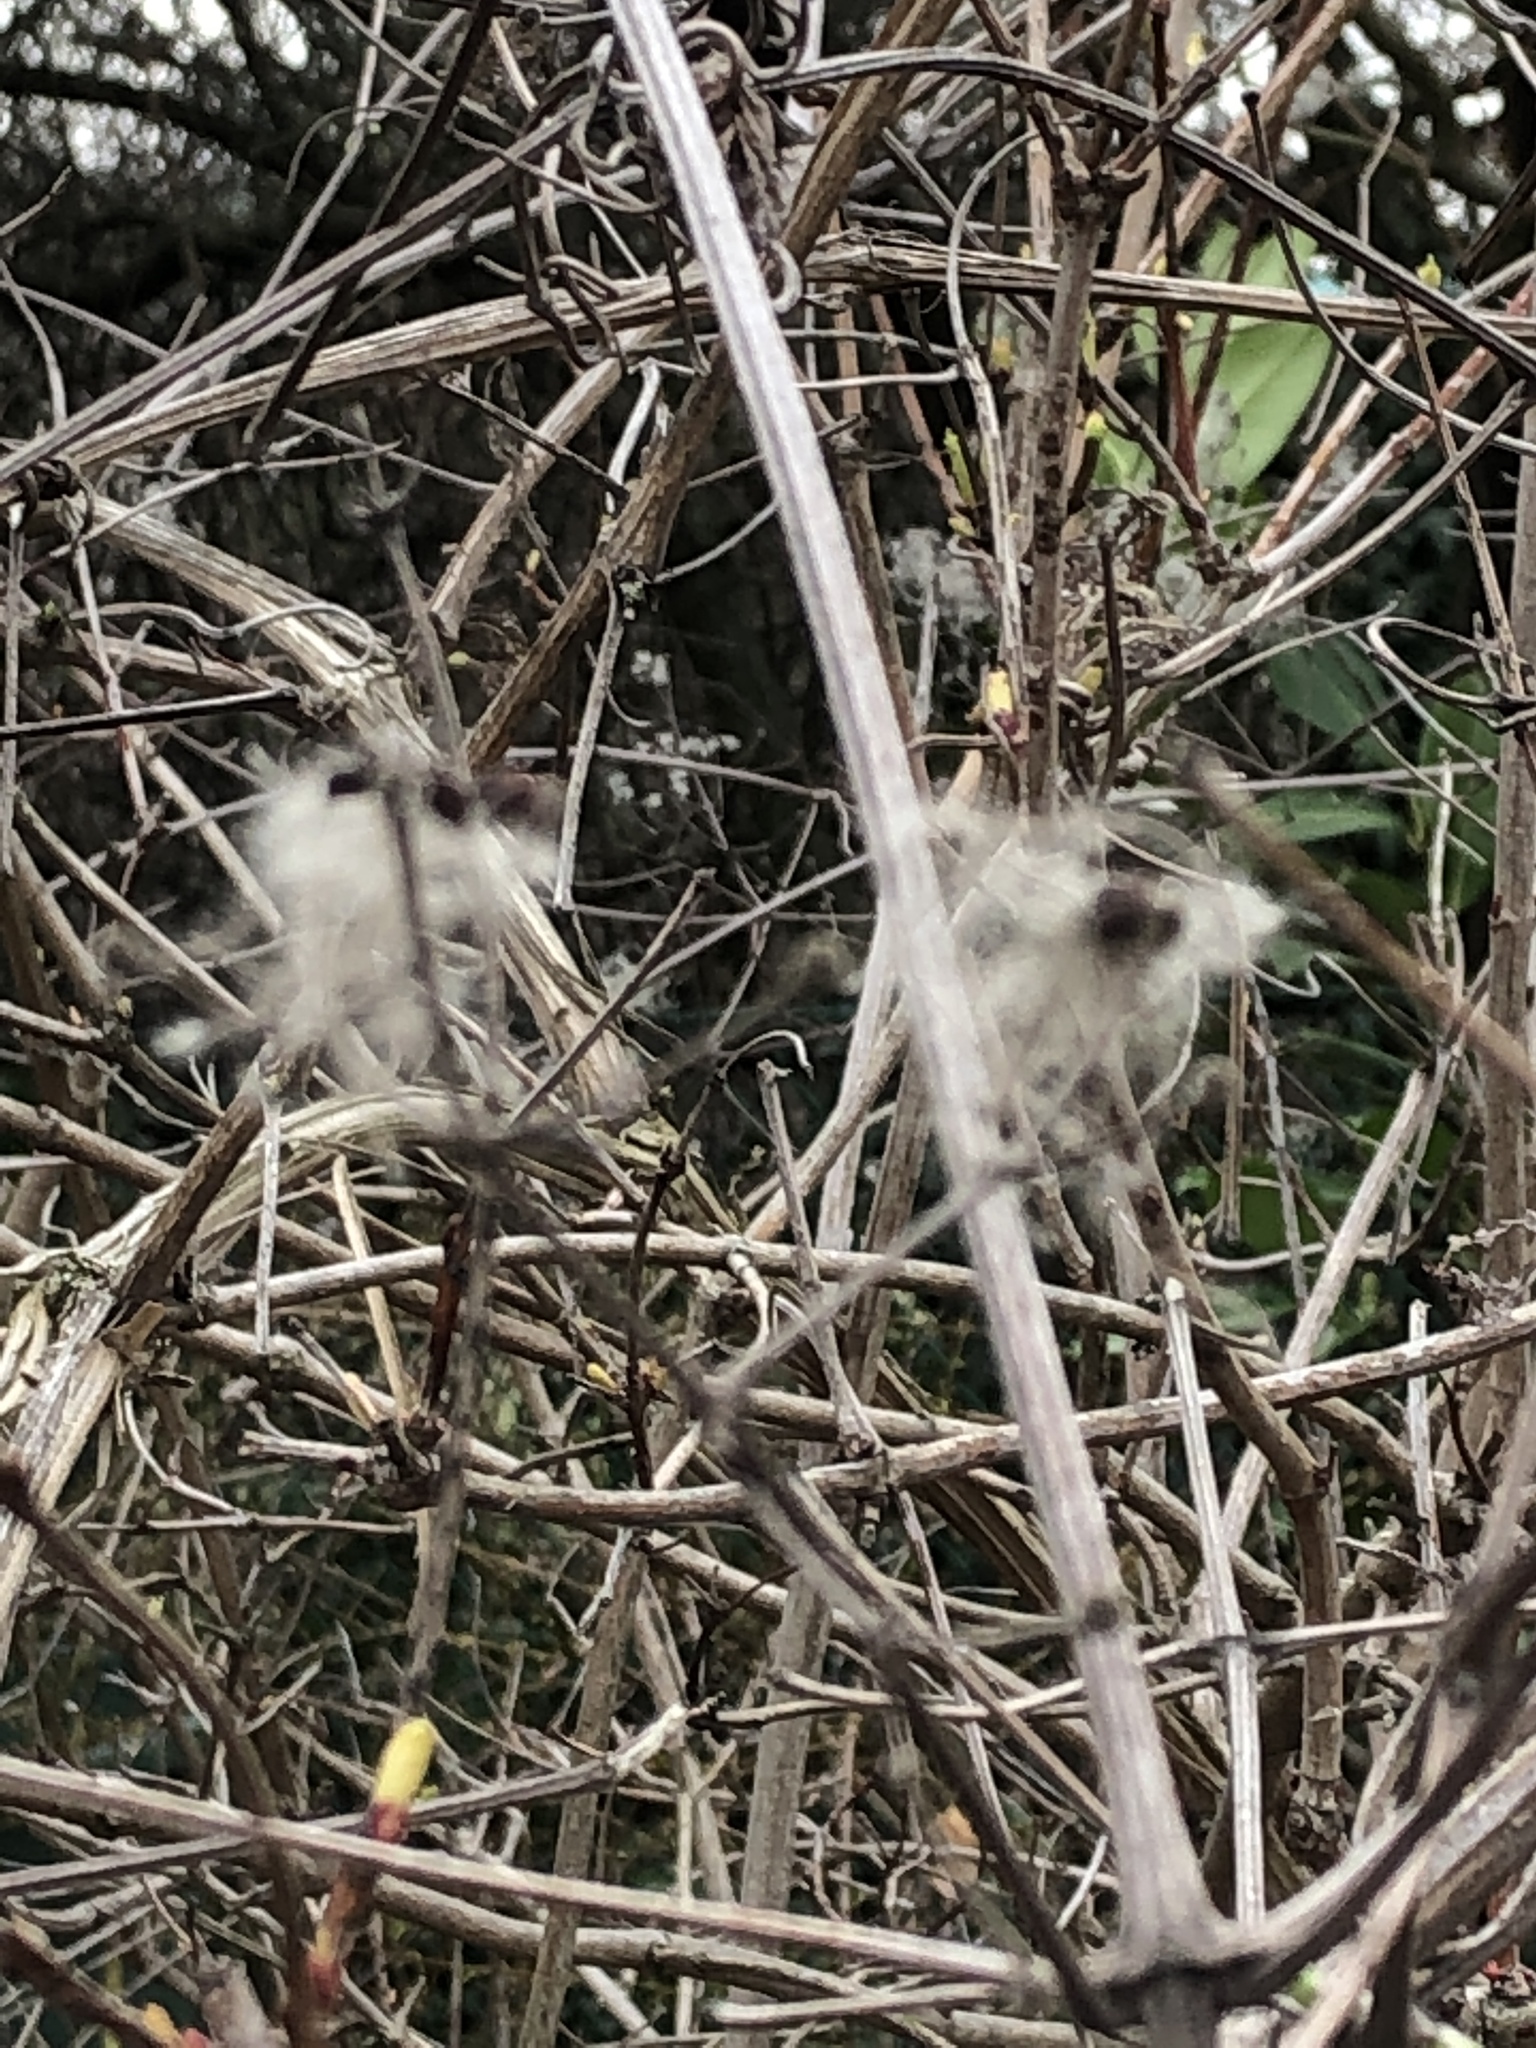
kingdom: Plantae
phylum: Tracheophyta
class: Magnoliopsida
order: Ranunculales
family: Ranunculaceae
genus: Clematis
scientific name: Clematis vitalba
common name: Evergreen clematis
